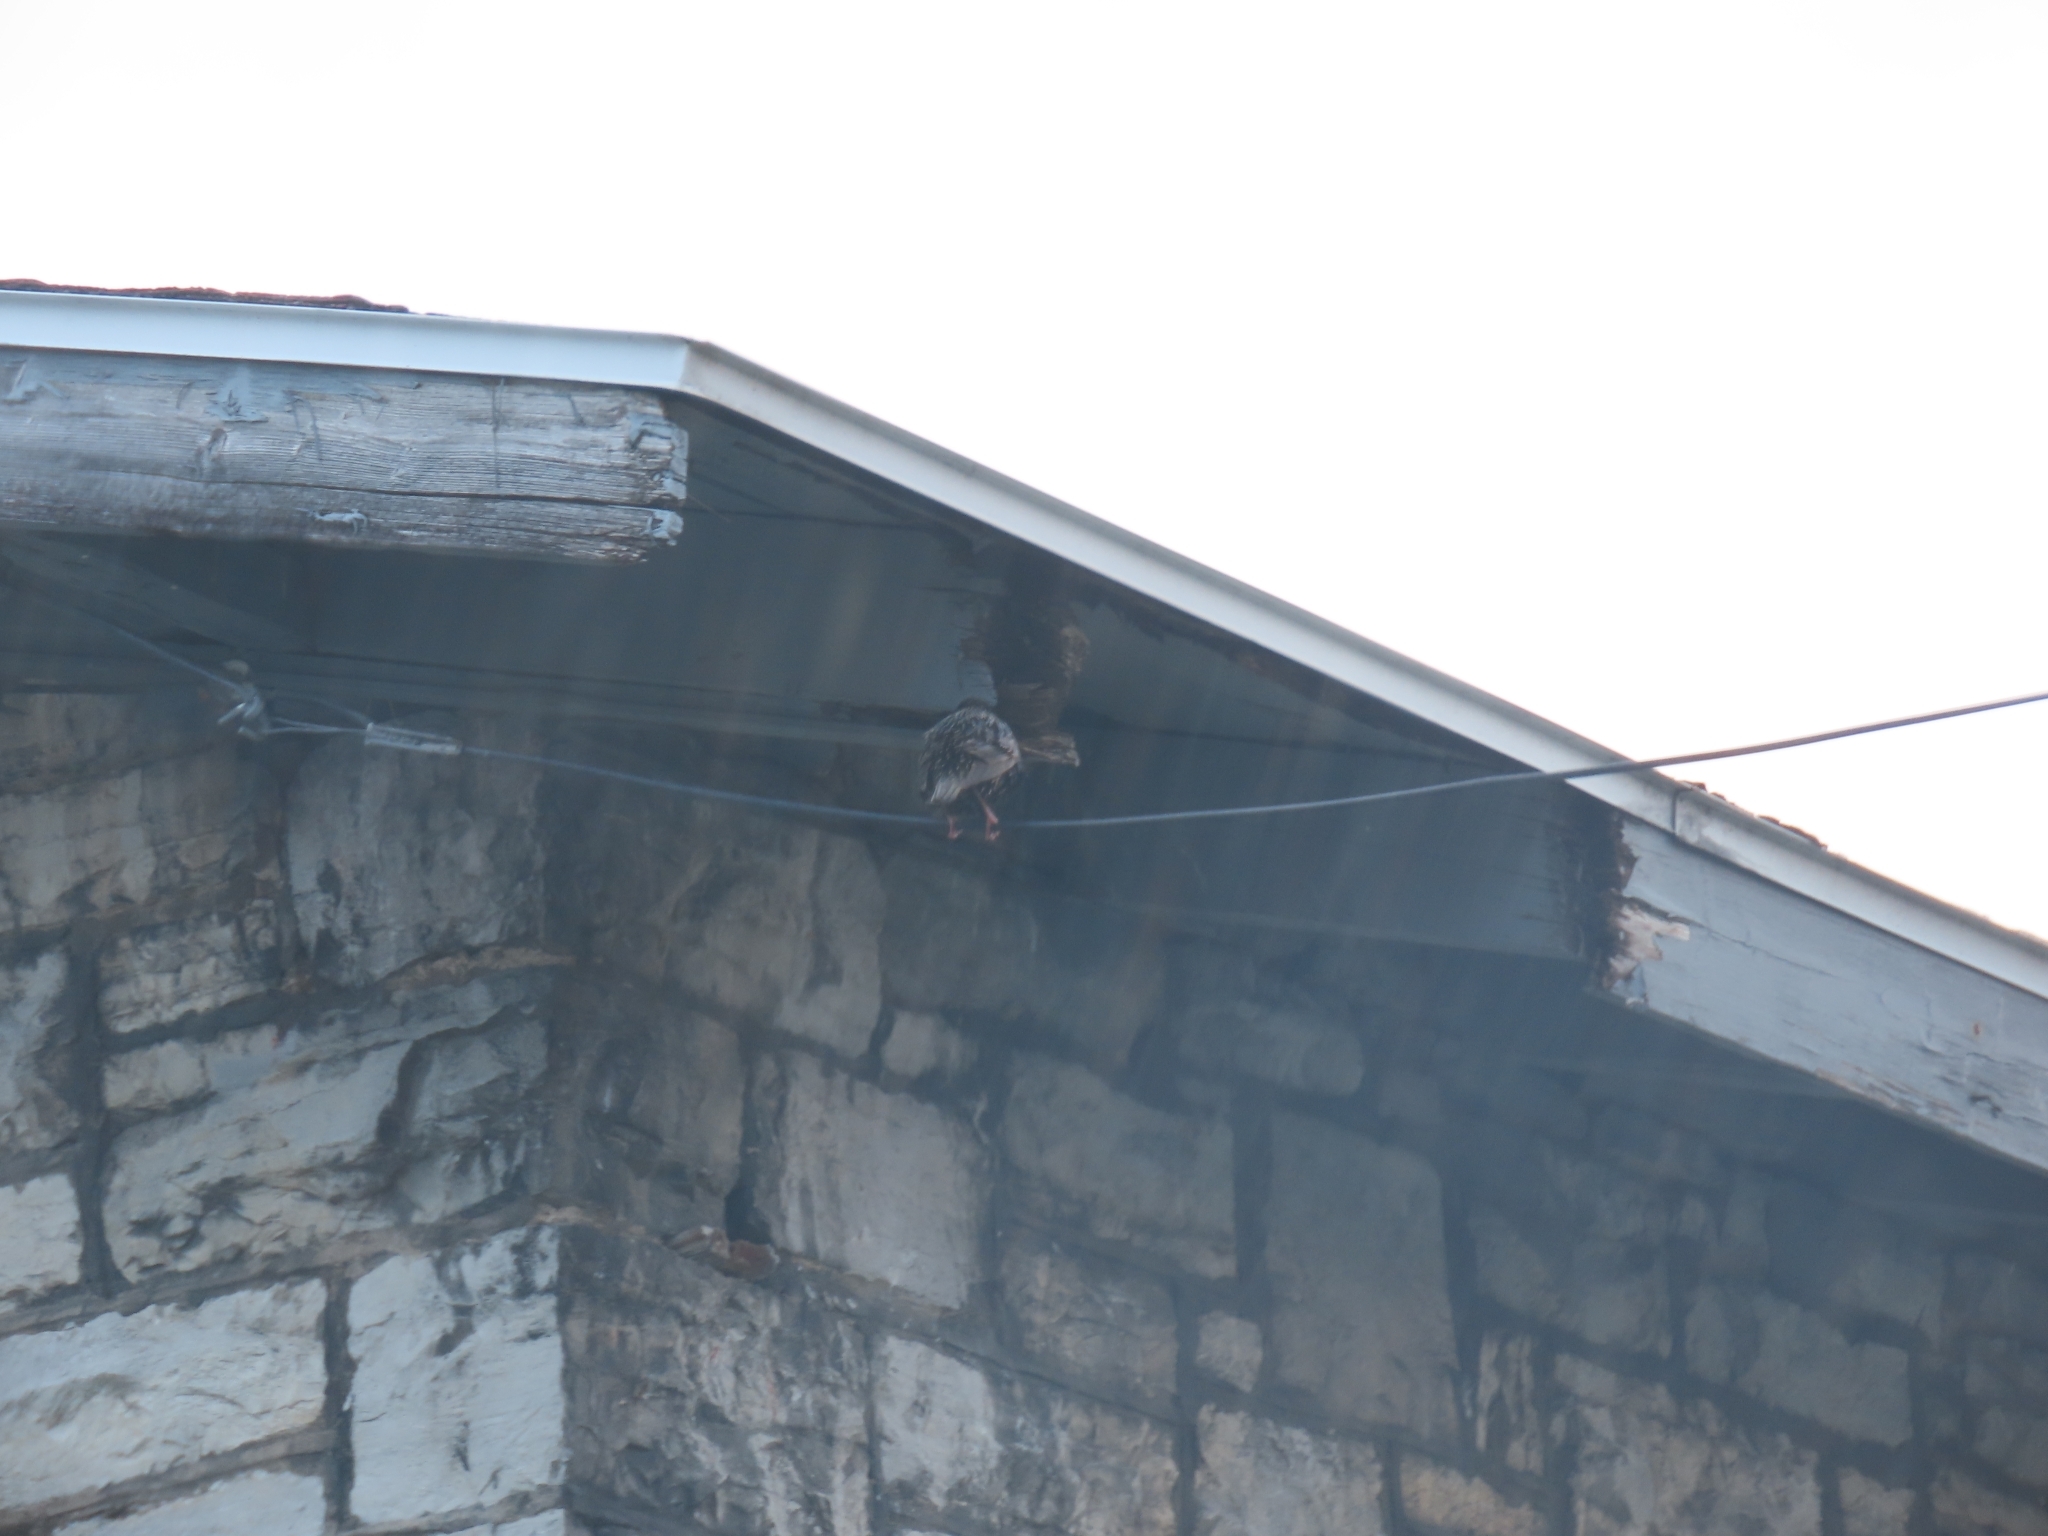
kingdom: Animalia
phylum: Chordata
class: Aves
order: Passeriformes
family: Sturnidae
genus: Sturnus
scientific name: Sturnus vulgaris
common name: Common starling
